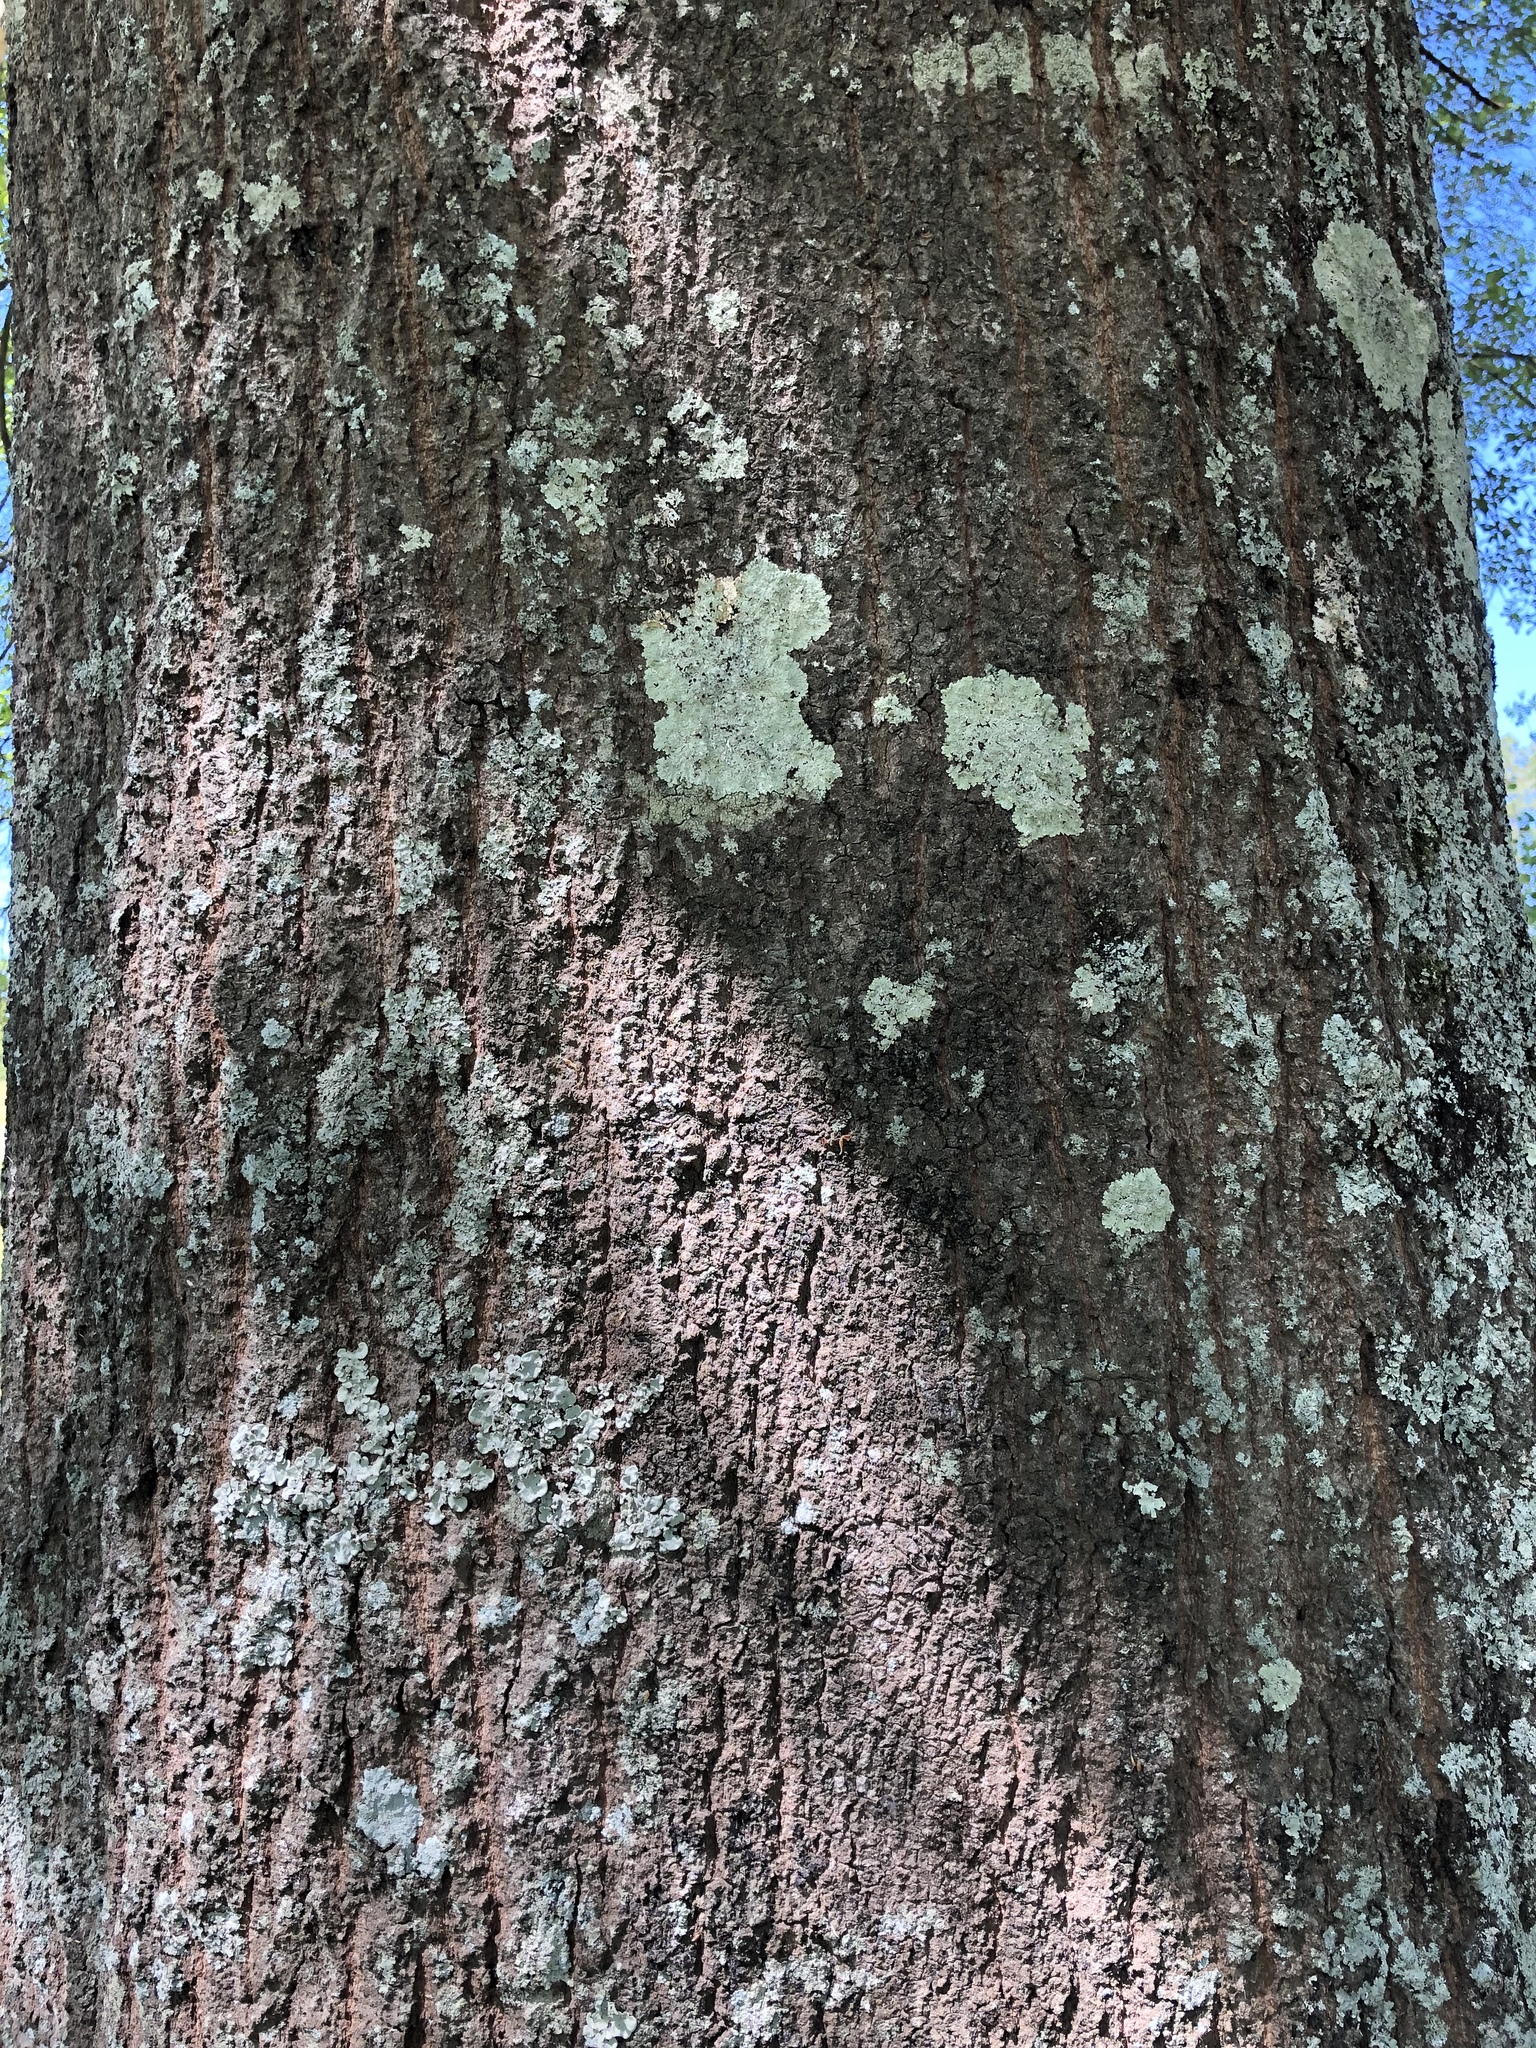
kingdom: Plantae
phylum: Tracheophyta
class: Magnoliopsida
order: Fagales
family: Fagaceae
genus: Quercus
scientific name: Quercus nigra
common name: Water oak
